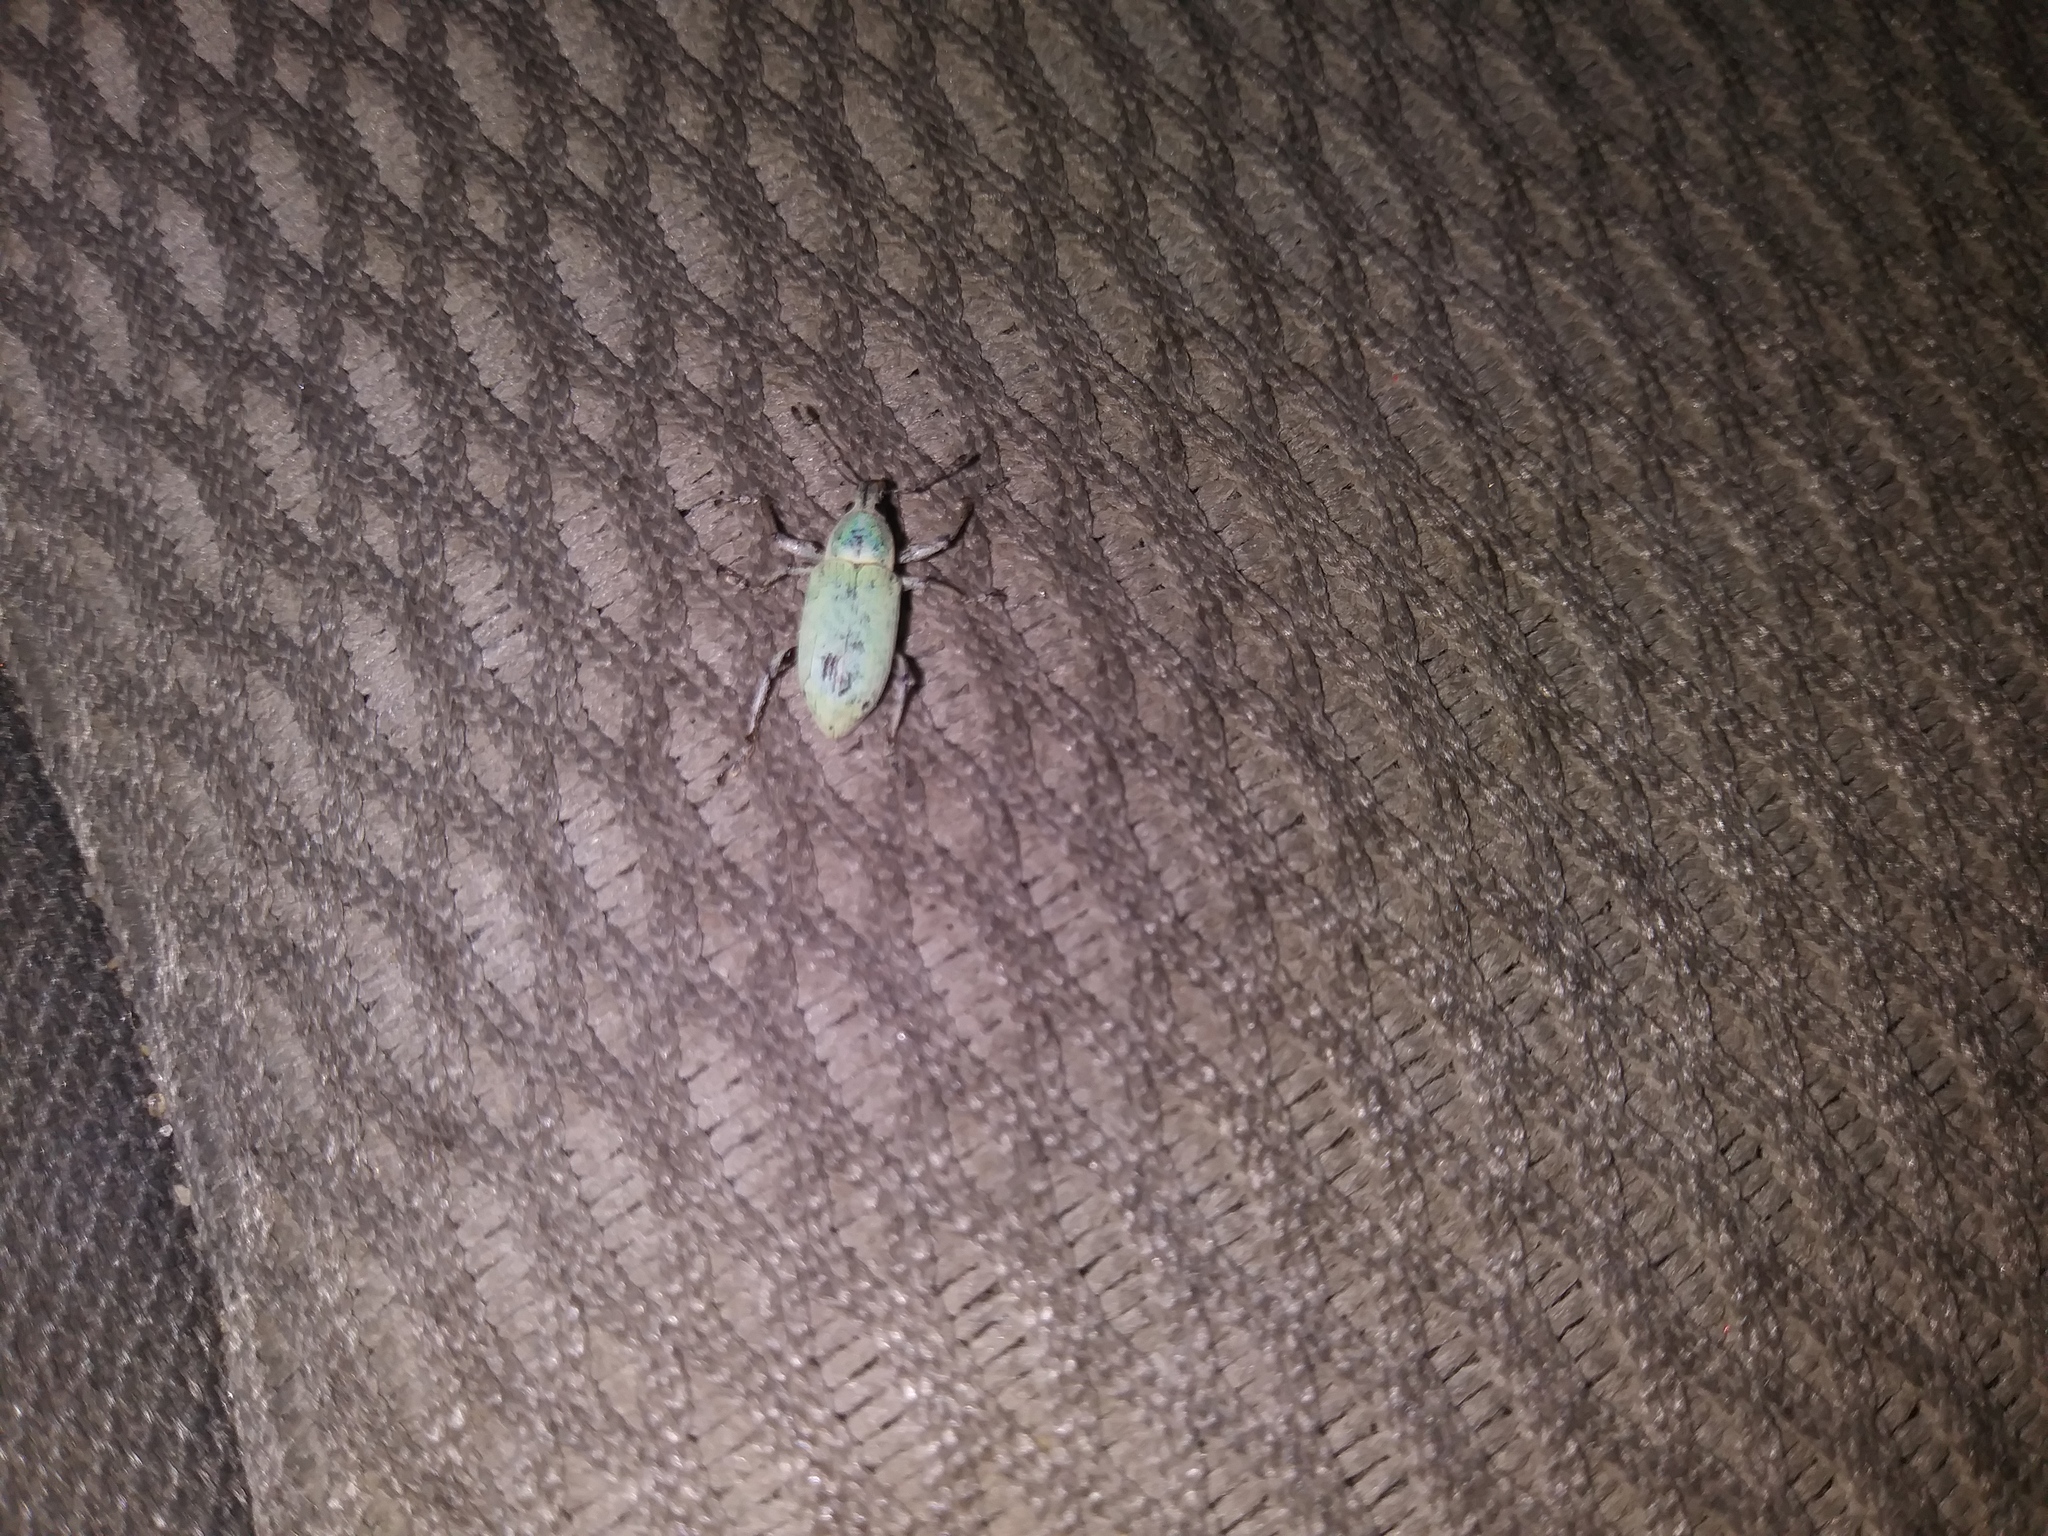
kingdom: Animalia
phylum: Arthropoda
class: Insecta
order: Coleoptera
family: Curculionidae
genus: Pachnaeus
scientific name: Pachnaeus azurescens
